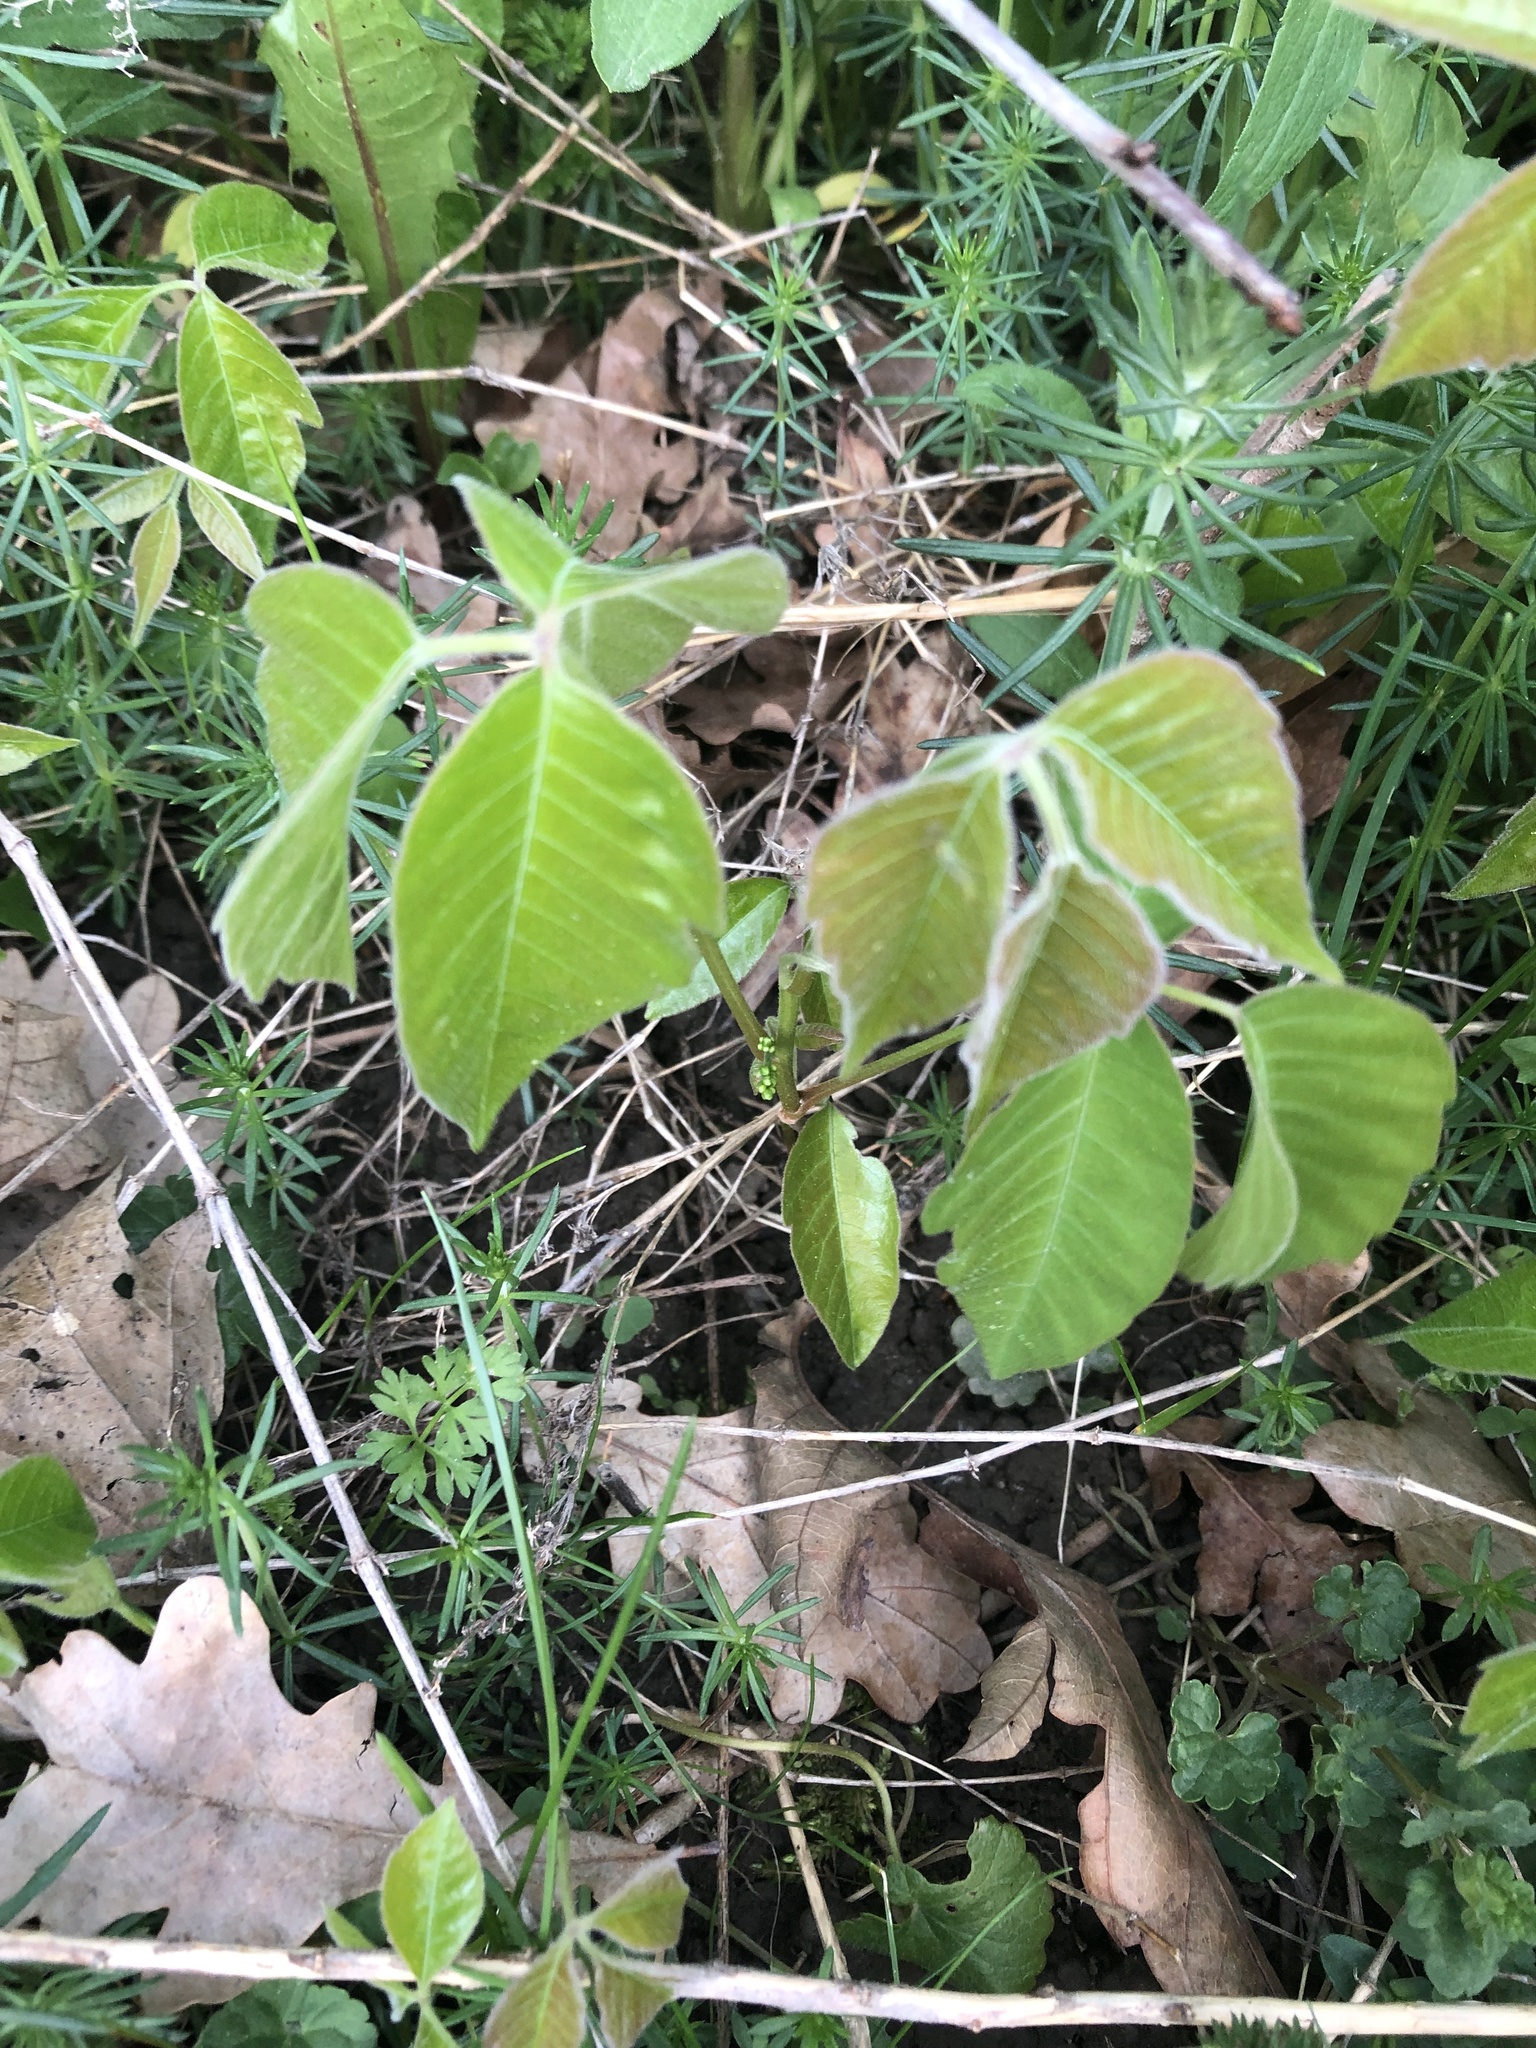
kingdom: Plantae
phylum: Tracheophyta
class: Magnoliopsida
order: Sapindales
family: Anacardiaceae
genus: Toxicodendron
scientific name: Toxicodendron radicans
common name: Poison ivy
